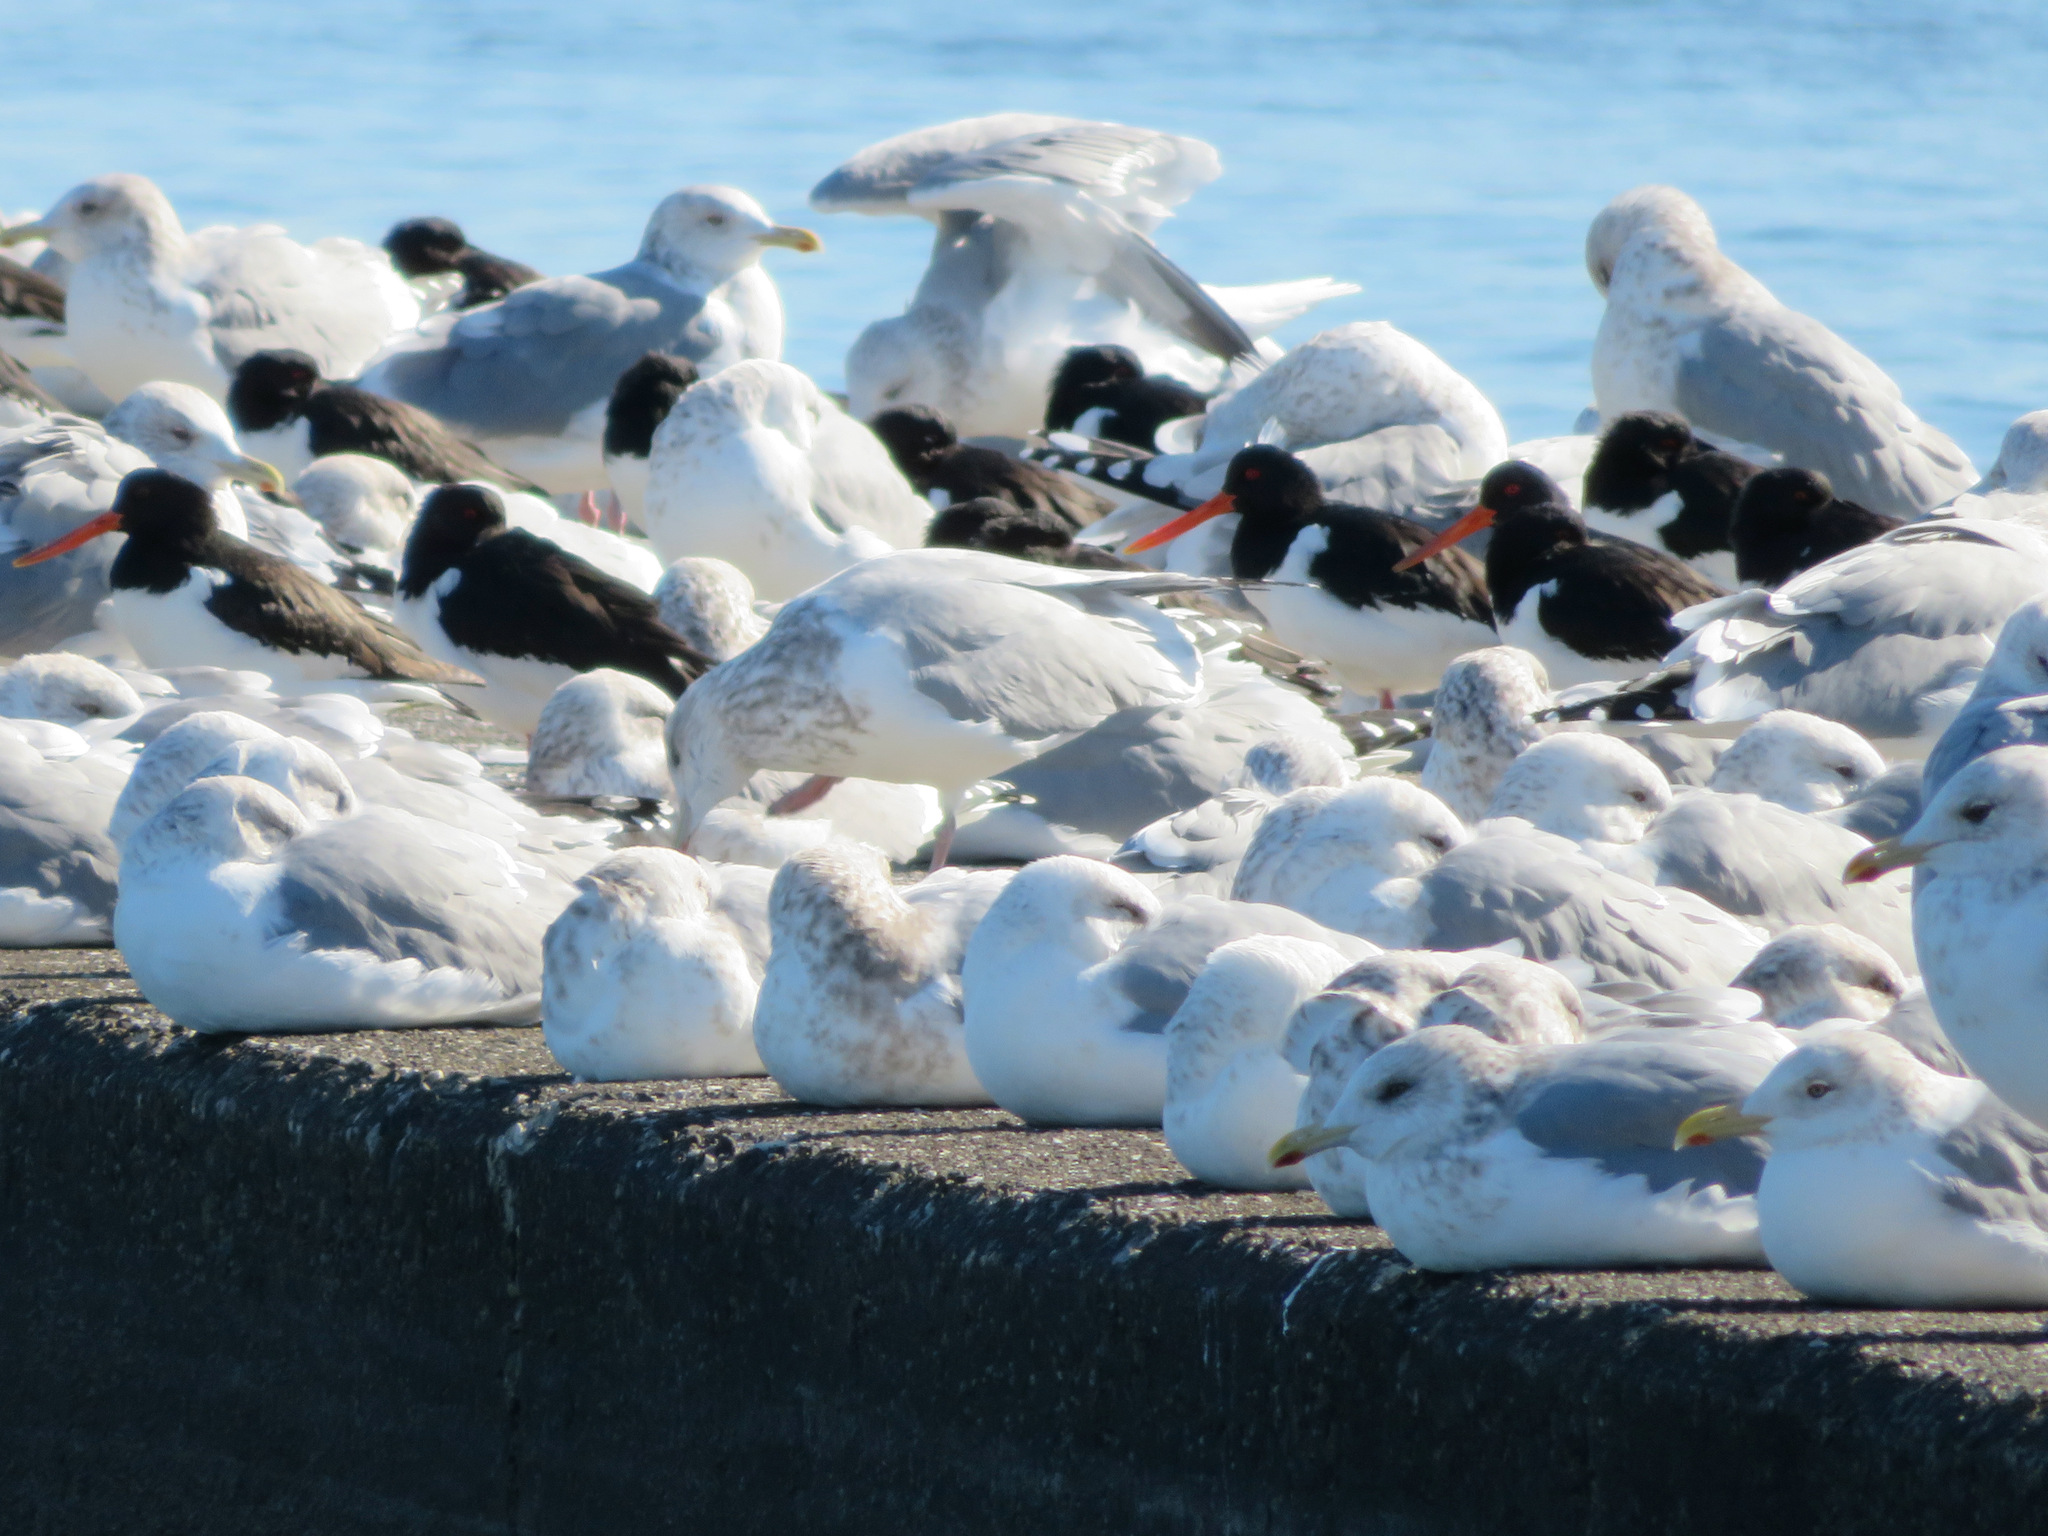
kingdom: Animalia
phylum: Chordata
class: Aves
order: Charadriiformes
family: Laridae
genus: Larus
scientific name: Larus vegae
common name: Vega gull
